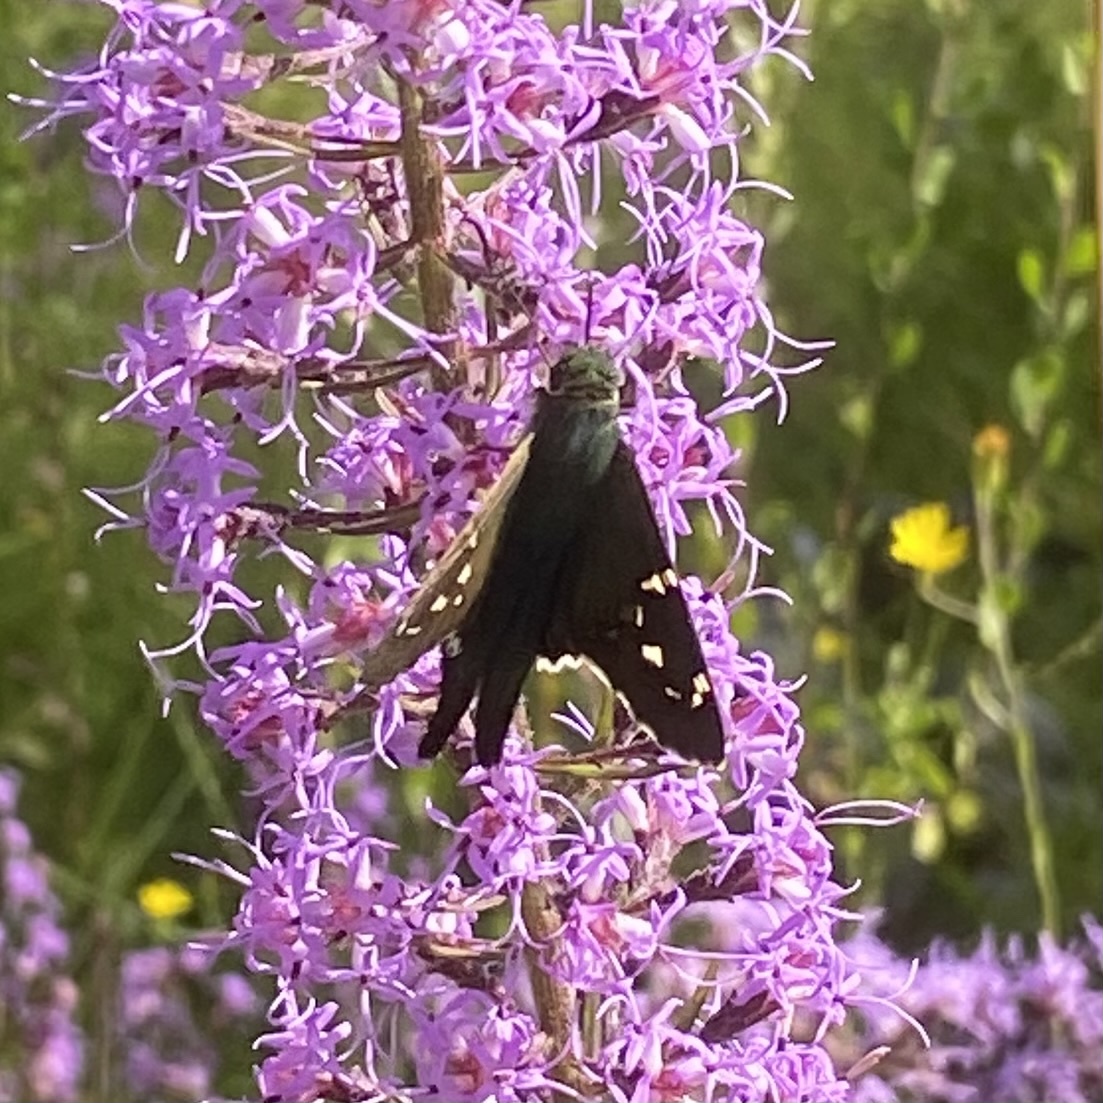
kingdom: Animalia
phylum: Arthropoda
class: Insecta
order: Lepidoptera
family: Hesperiidae
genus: Urbanus
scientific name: Urbanus proteus
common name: Long-tailed skipper
